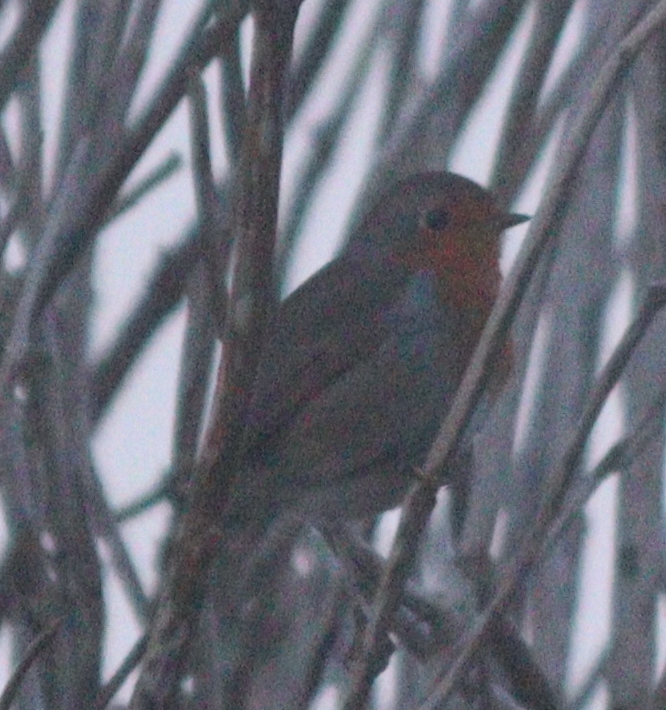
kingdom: Animalia
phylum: Chordata
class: Aves
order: Passeriformes
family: Muscicapidae
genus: Erithacus
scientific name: Erithacus rubecula
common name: European robin
